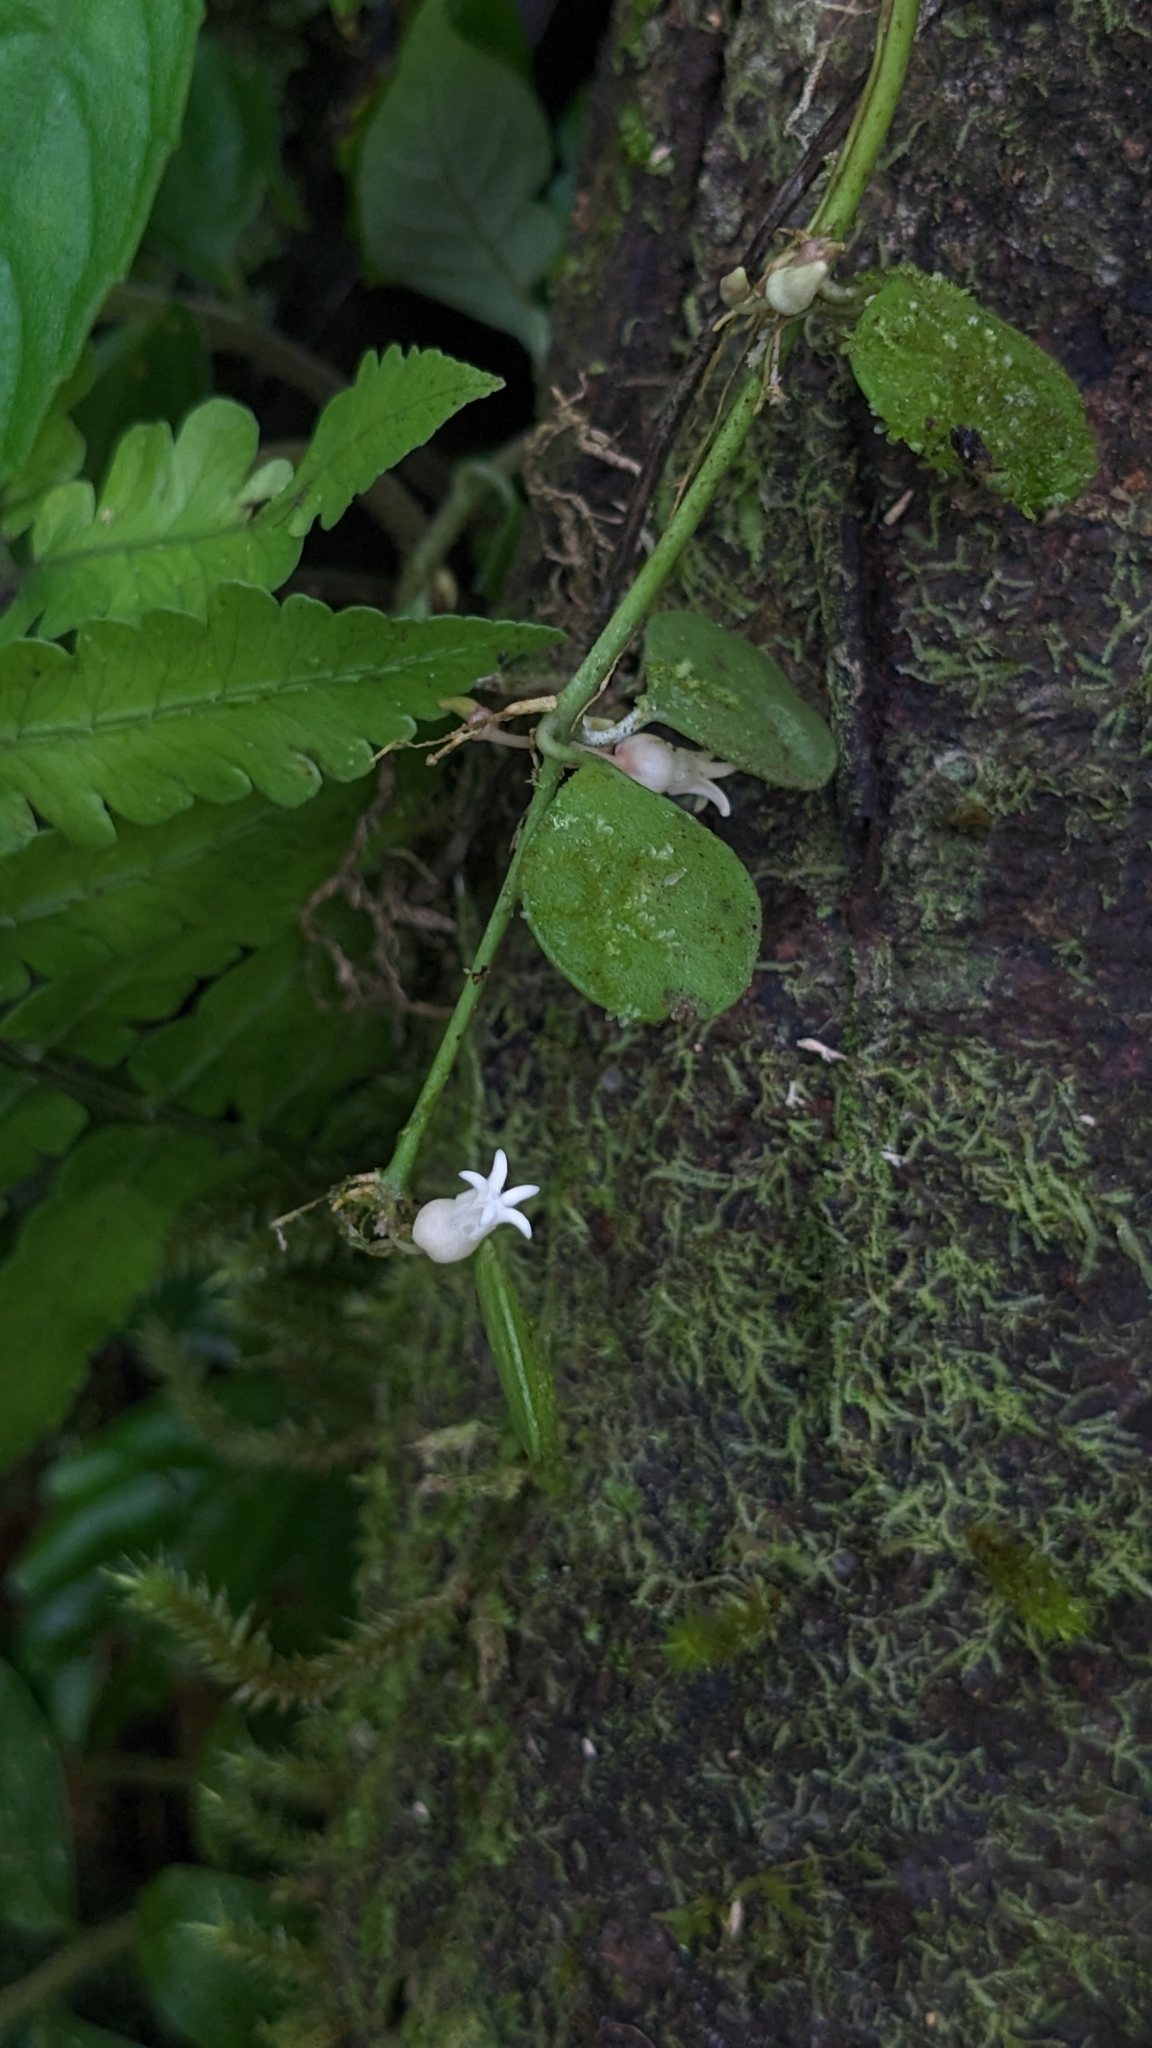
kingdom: Plantae
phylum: Tracheophyta
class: Magnoliopsida
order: Gentianales
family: Apocynaceae
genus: Dischidia
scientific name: Dischidia formosana
